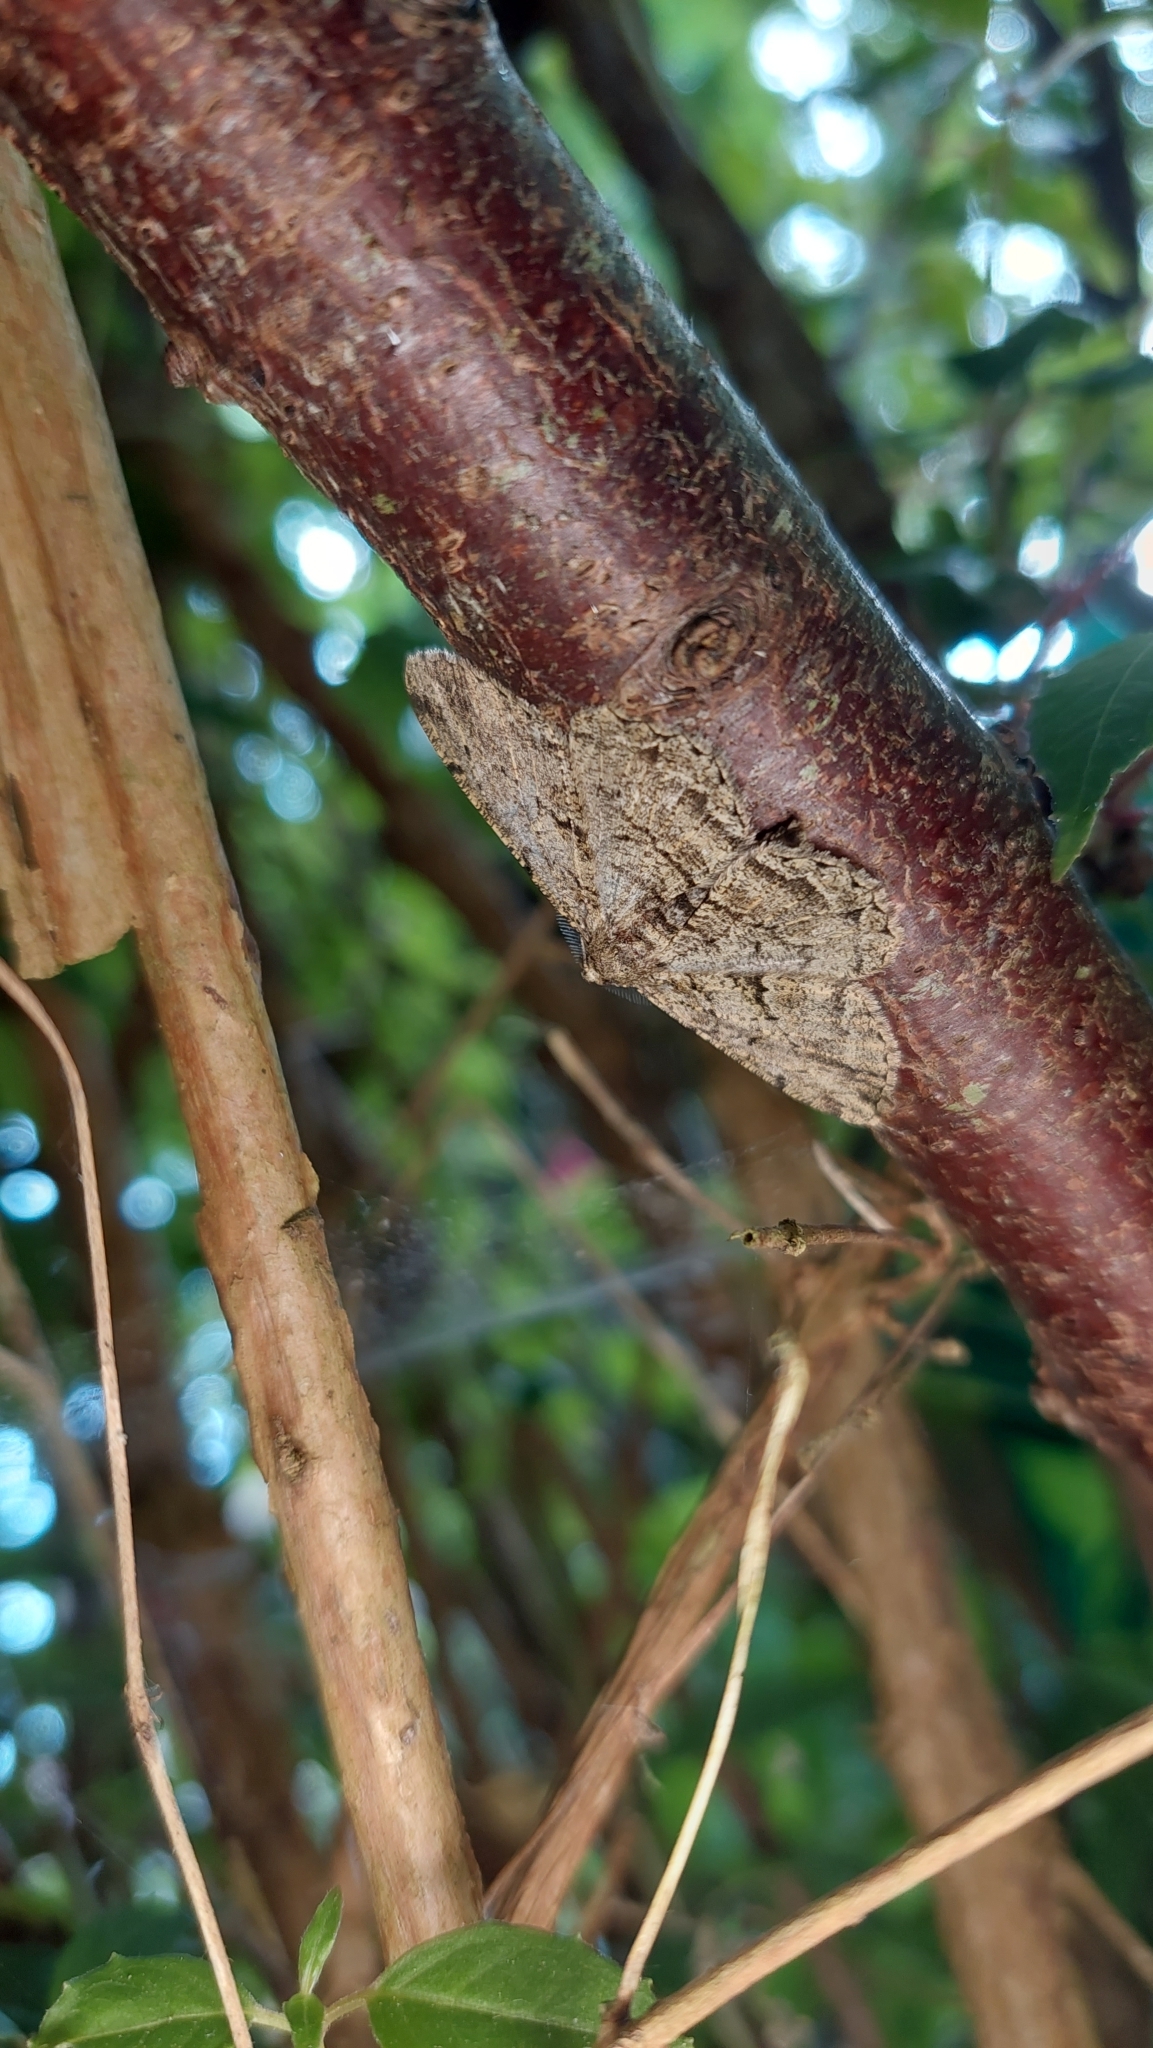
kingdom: Animalia
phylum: Arthropoda
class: Insecta
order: Lepidoptera
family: Geometridae
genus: Peribatodes
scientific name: Peribatodes rhomboidaria
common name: Willow beauty
